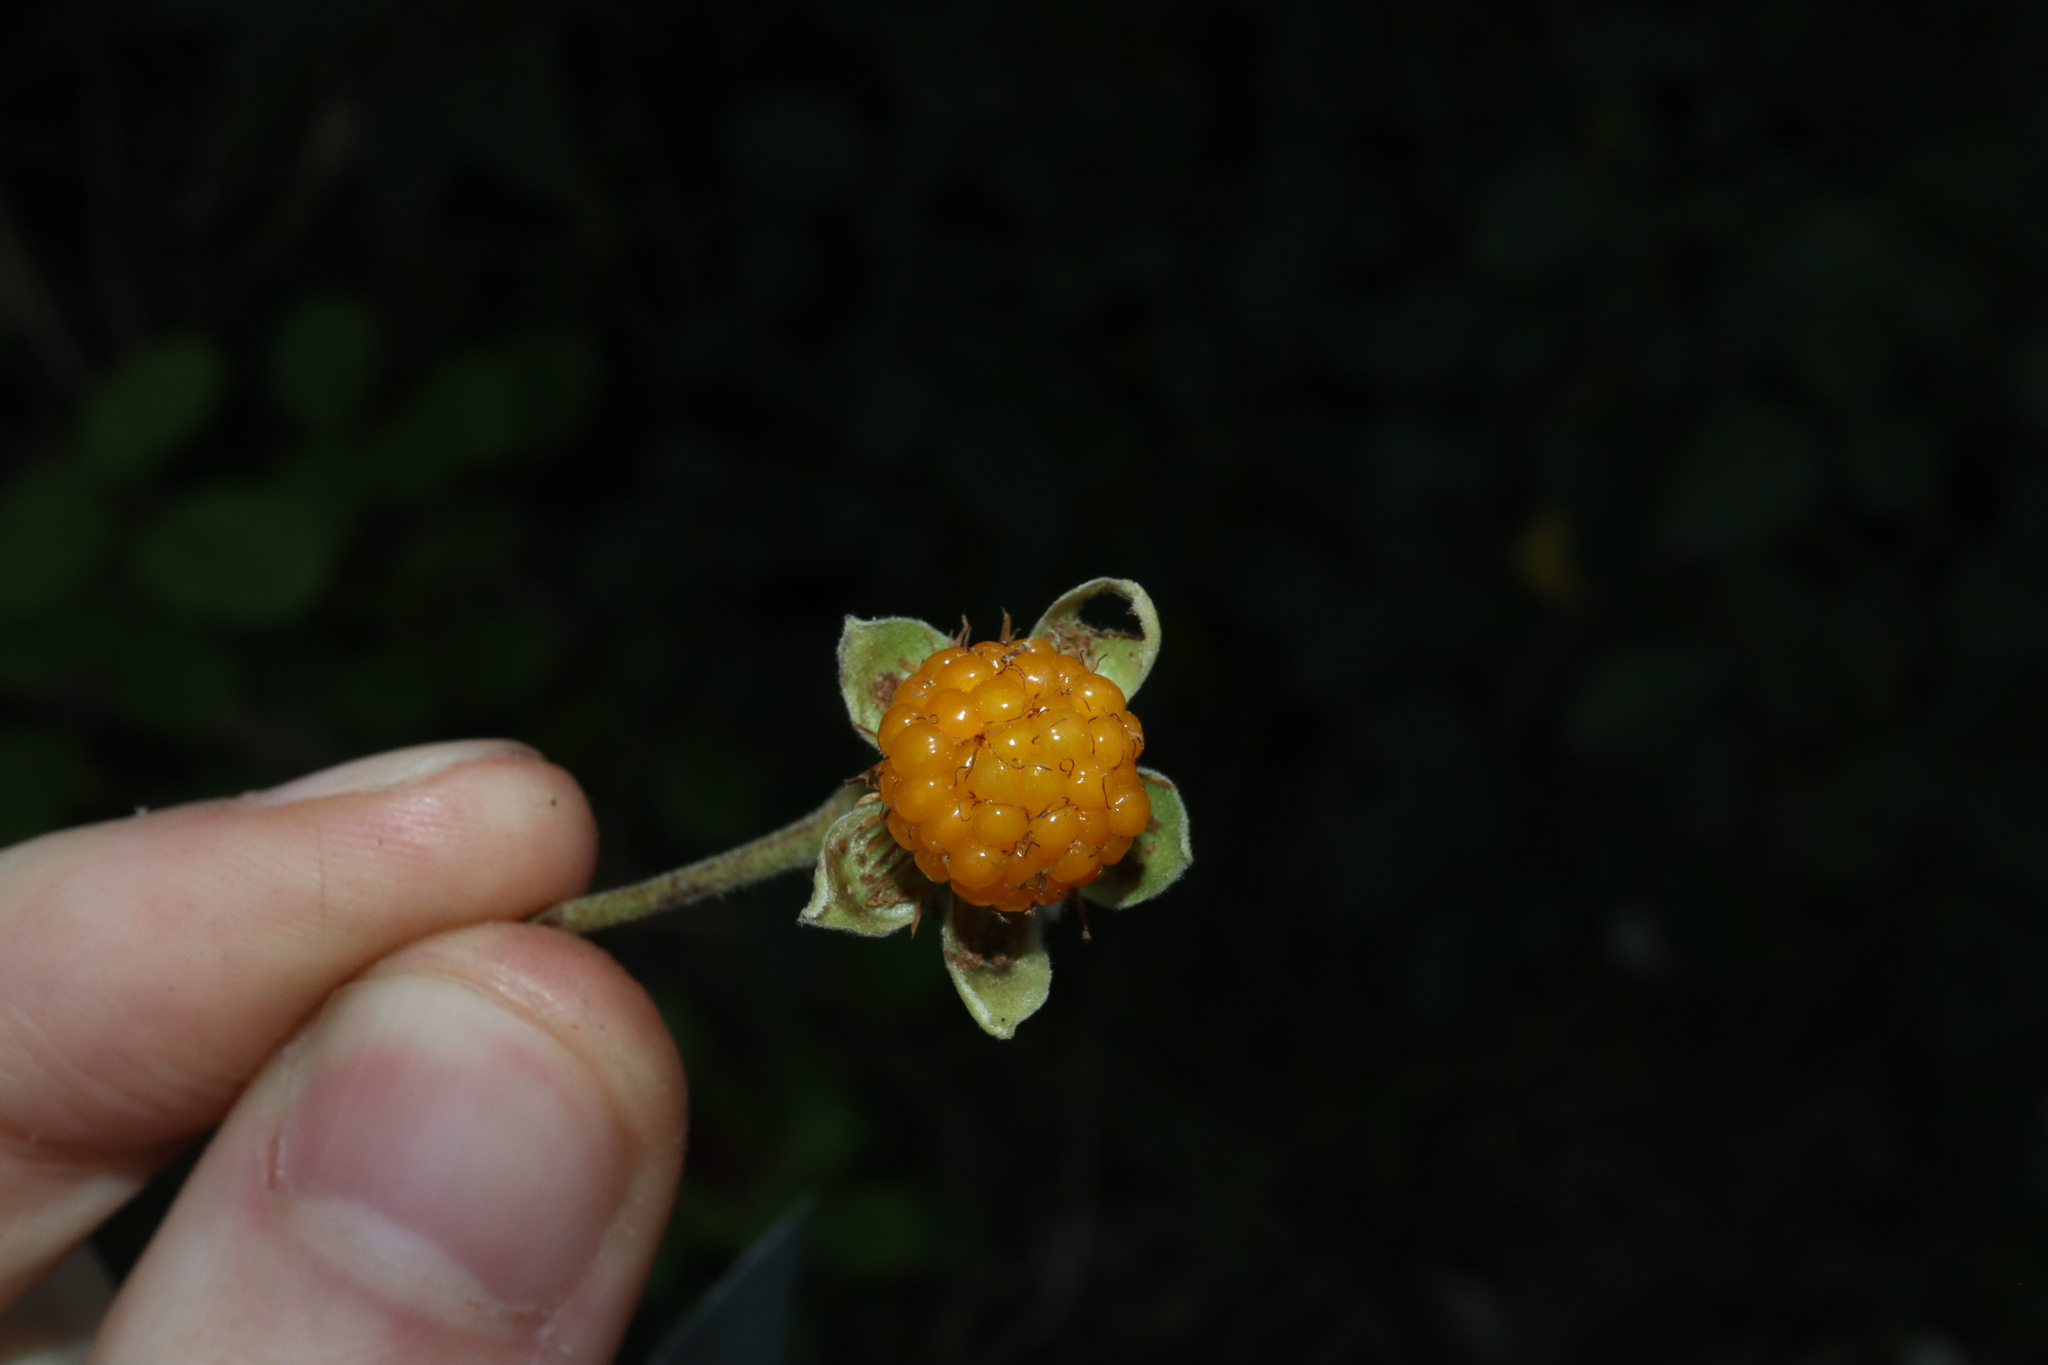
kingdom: Plantae
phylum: Tracheophyta
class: Magnoliopsida
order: Rosales
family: Rosaceae
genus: Rubus
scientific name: Rubus ellipticus
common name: Cheeseberry
